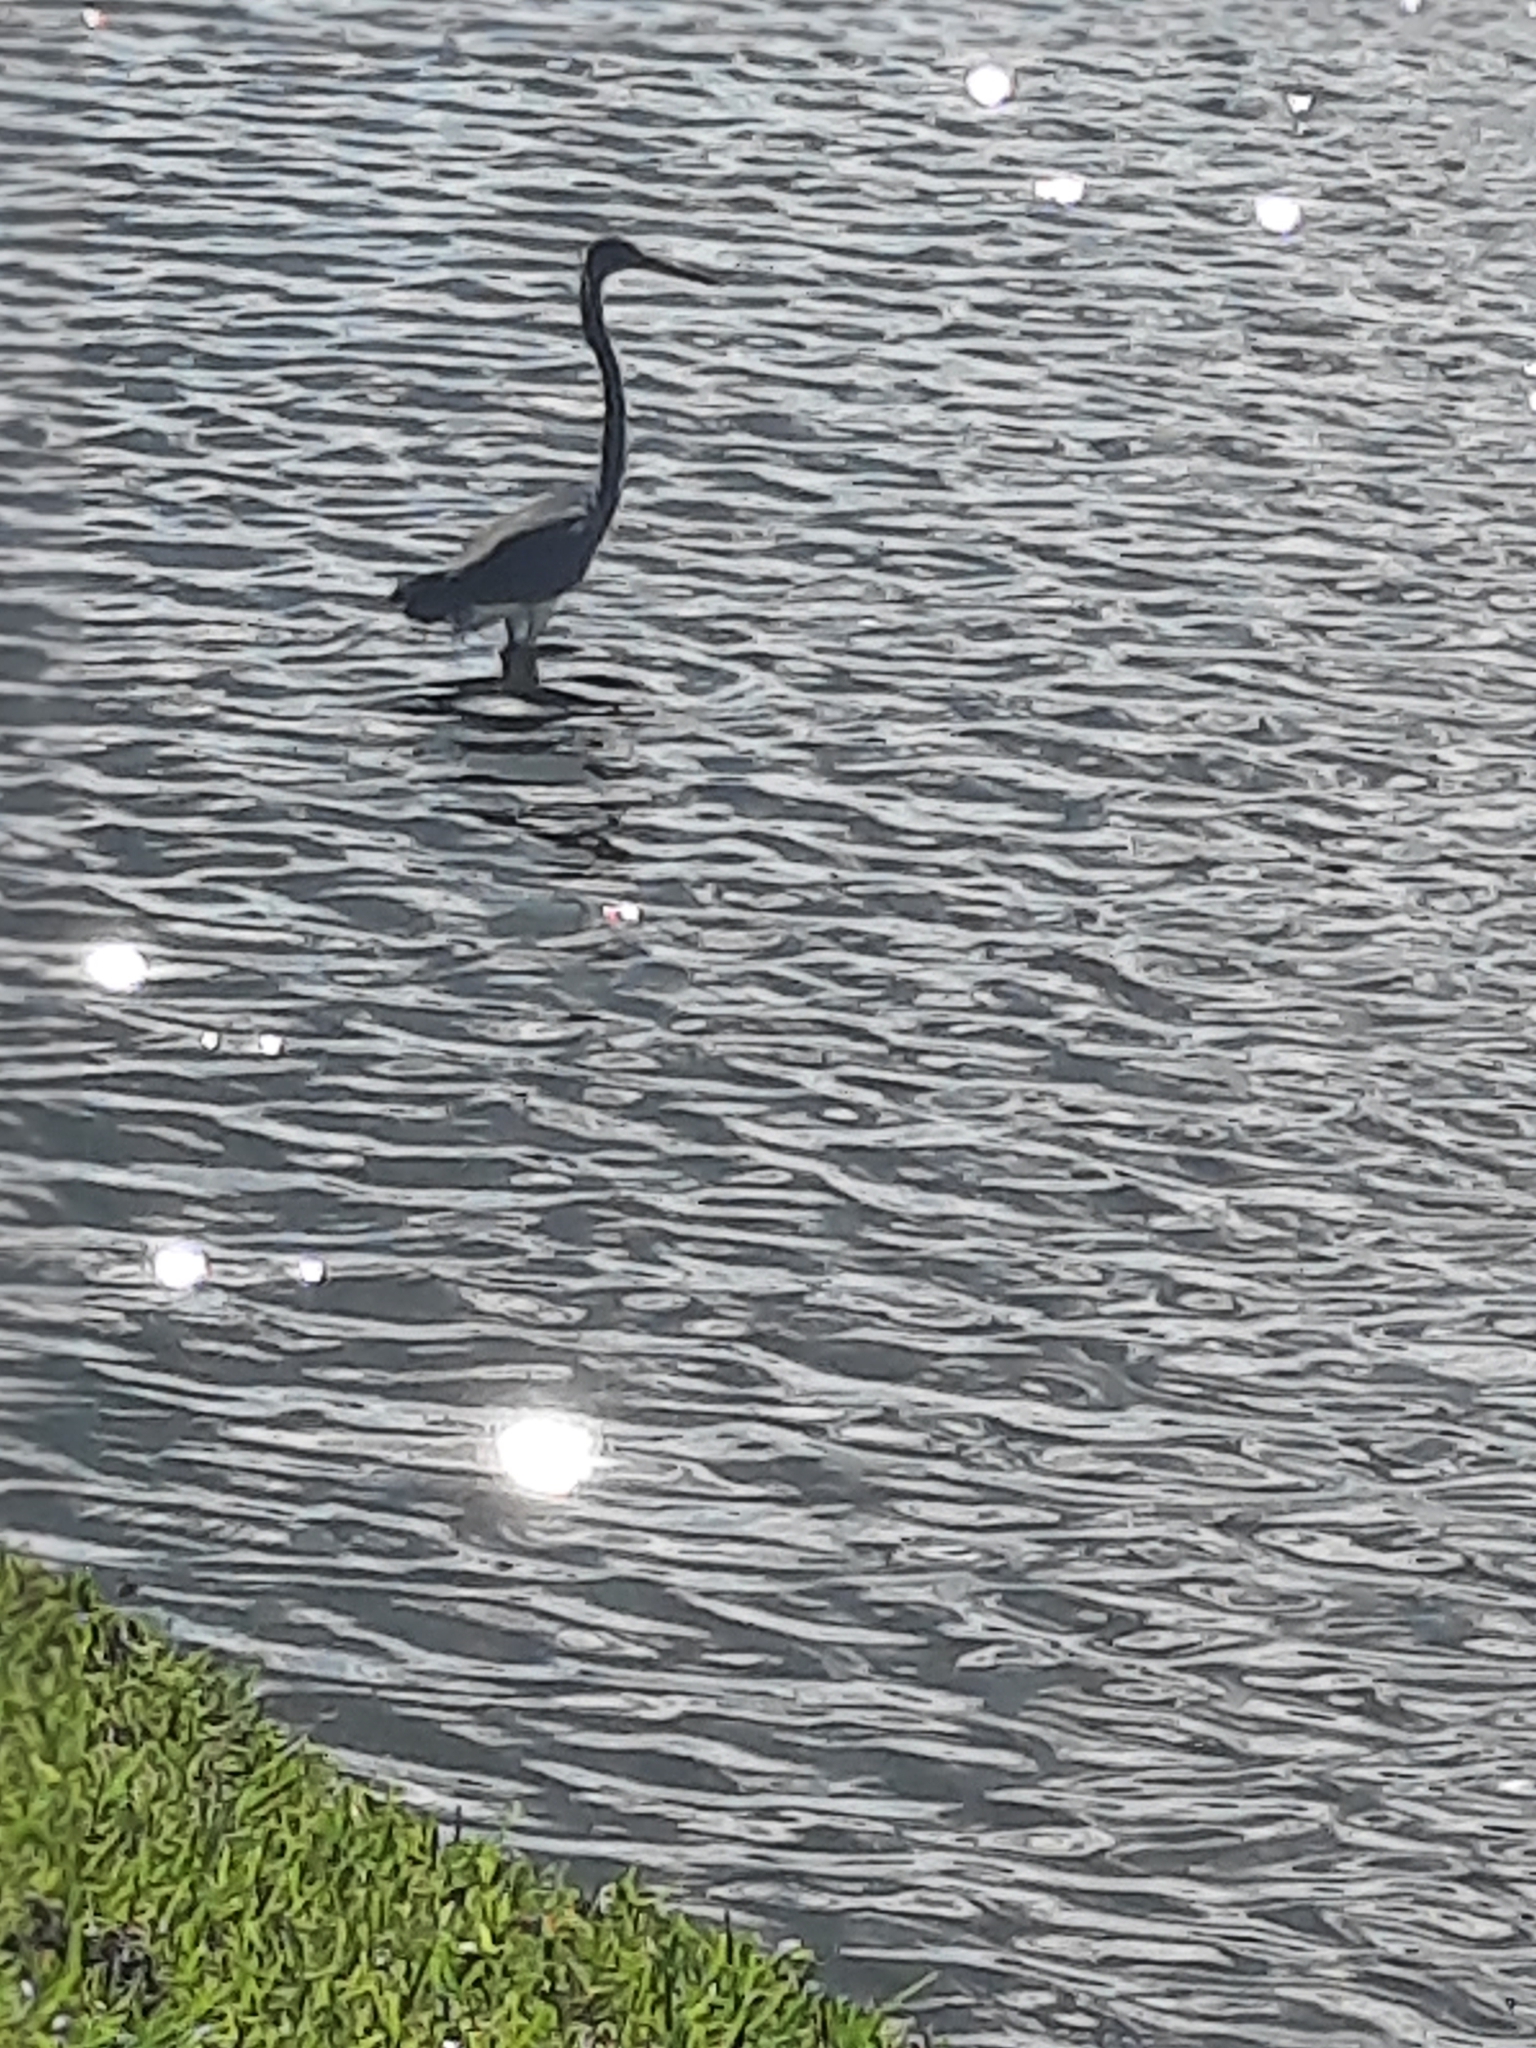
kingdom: Animalia
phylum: Chordata
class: Aves
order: Pelecaniformes
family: Ardeidae
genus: Egretta
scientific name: Egretta tricolor
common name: Tricolored heron
